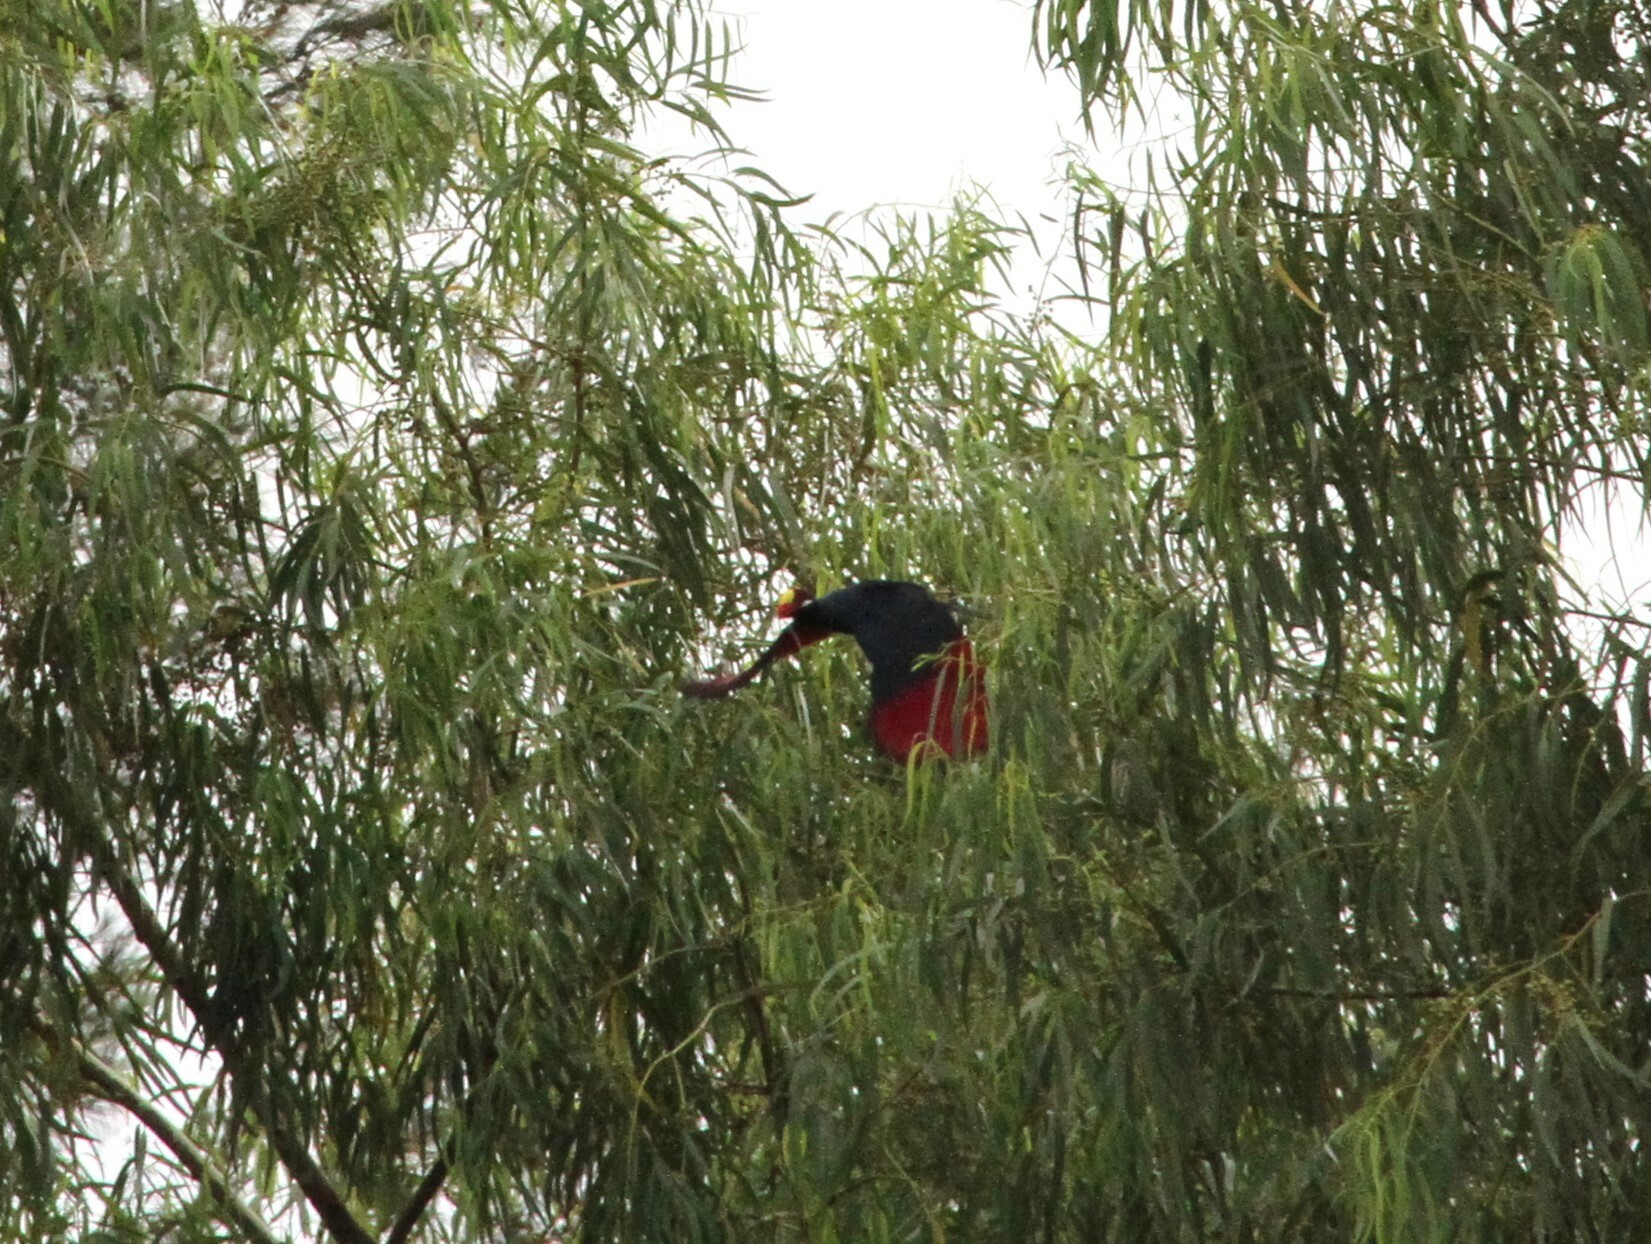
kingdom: Animalia
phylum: Chordata
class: Aves
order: Musophagiformes
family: Musophagidae
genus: Musophaga
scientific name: Musophaga violacea
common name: Violet turaco
